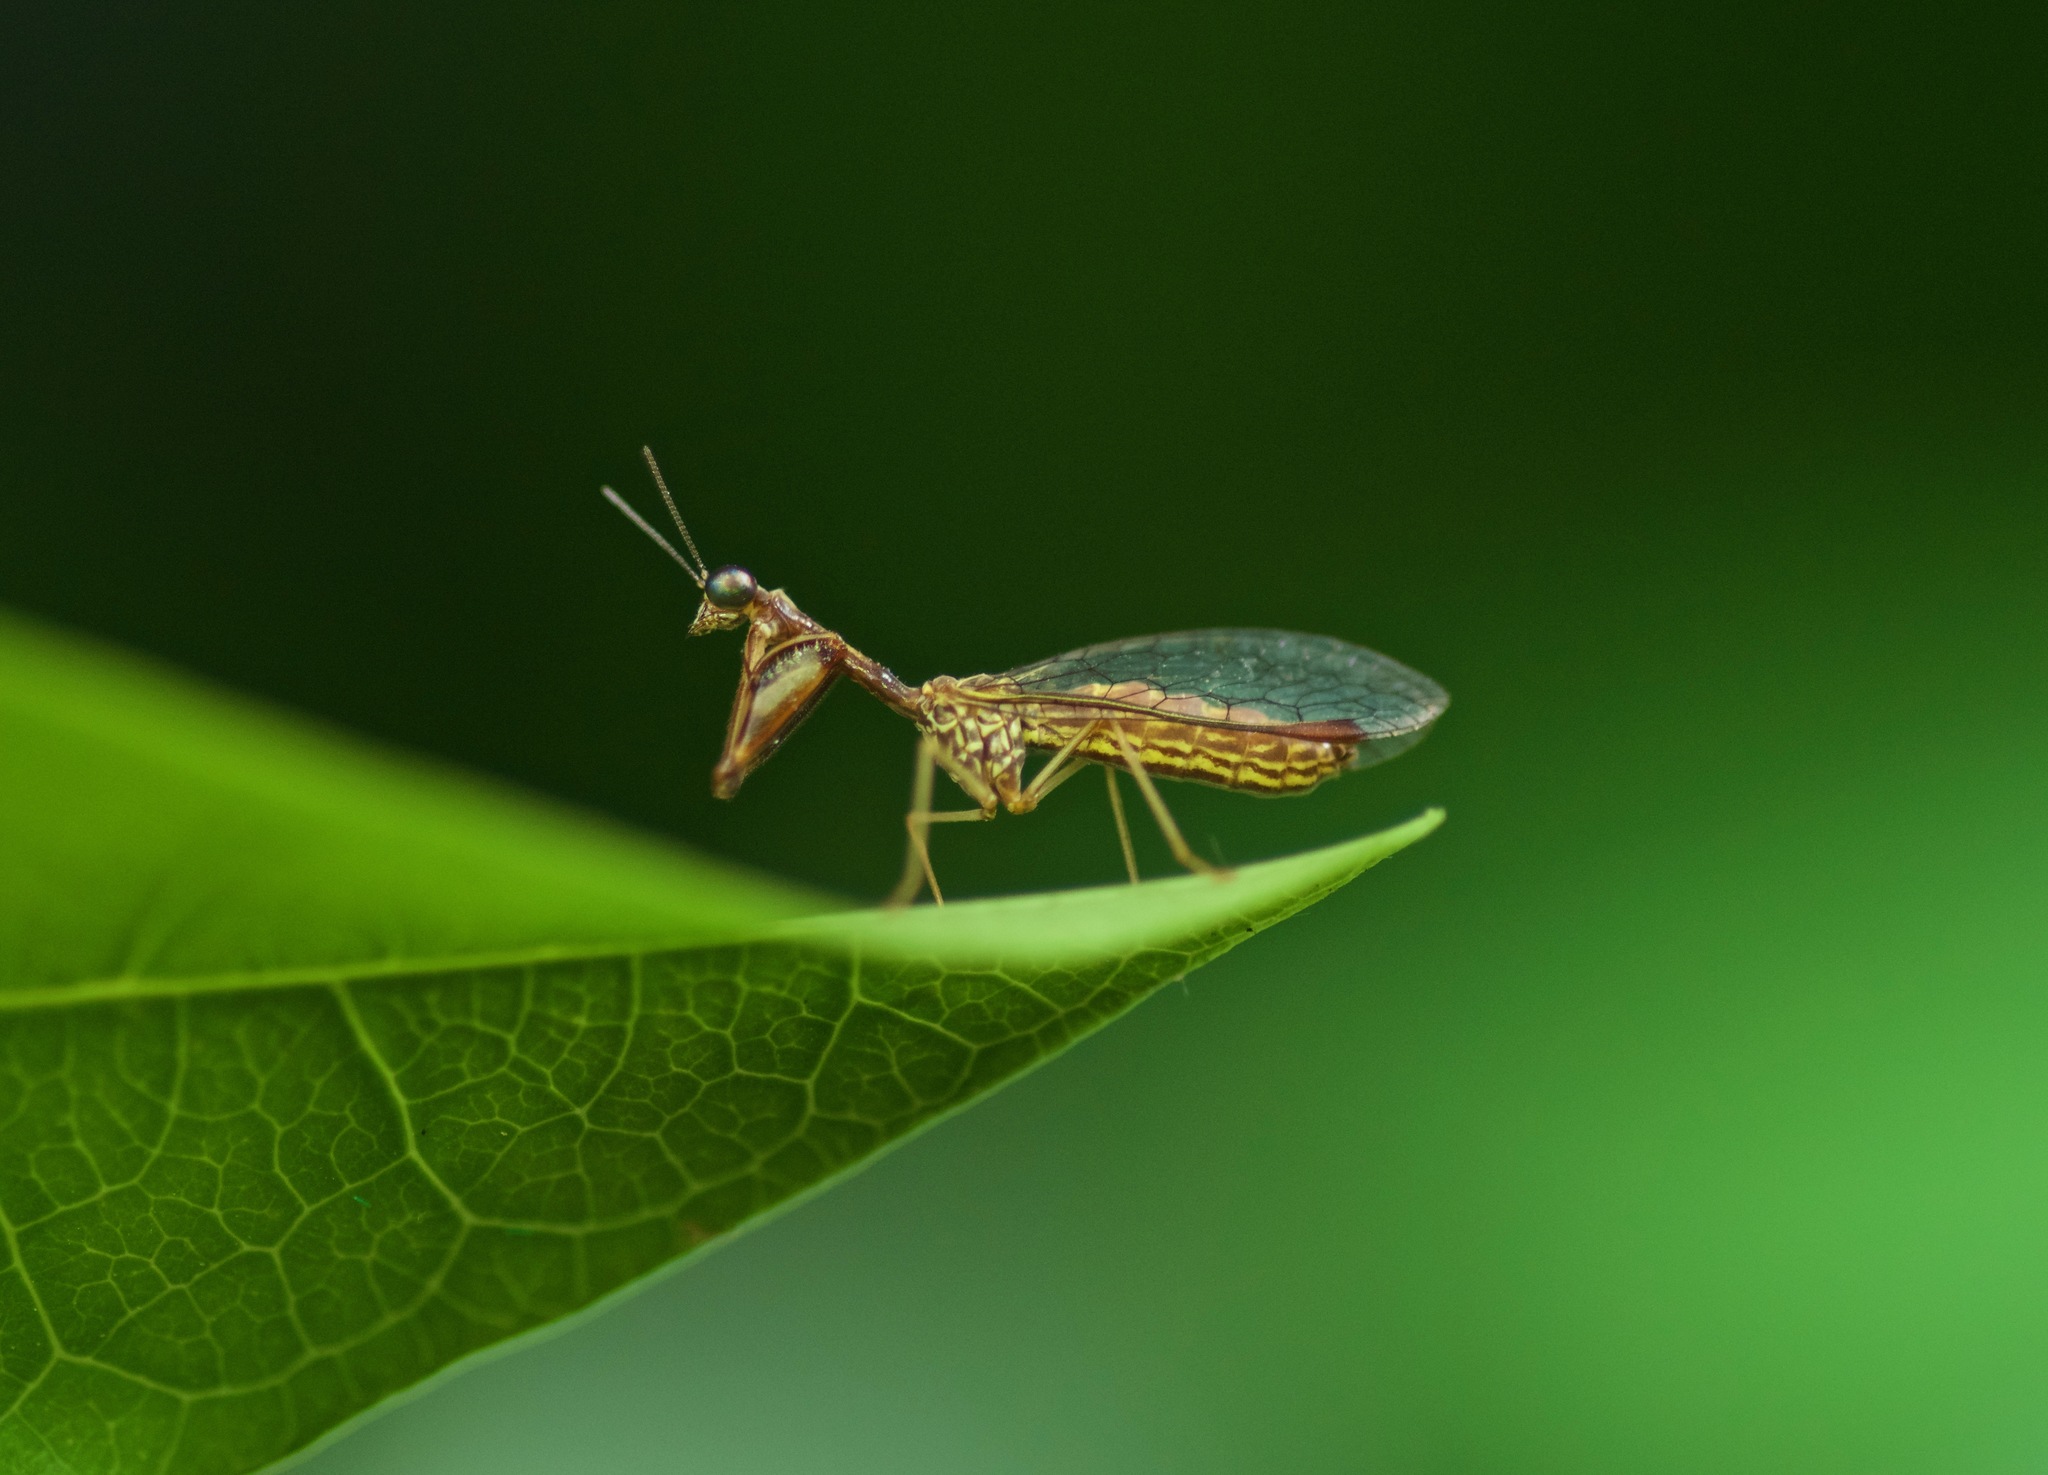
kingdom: Animalia
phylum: Arthropoda
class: Insecta
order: Neuroptera
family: Mantispidae
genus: Leptomantispa
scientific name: Leptomantispa pulchella
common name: Stevens's mantidfly
